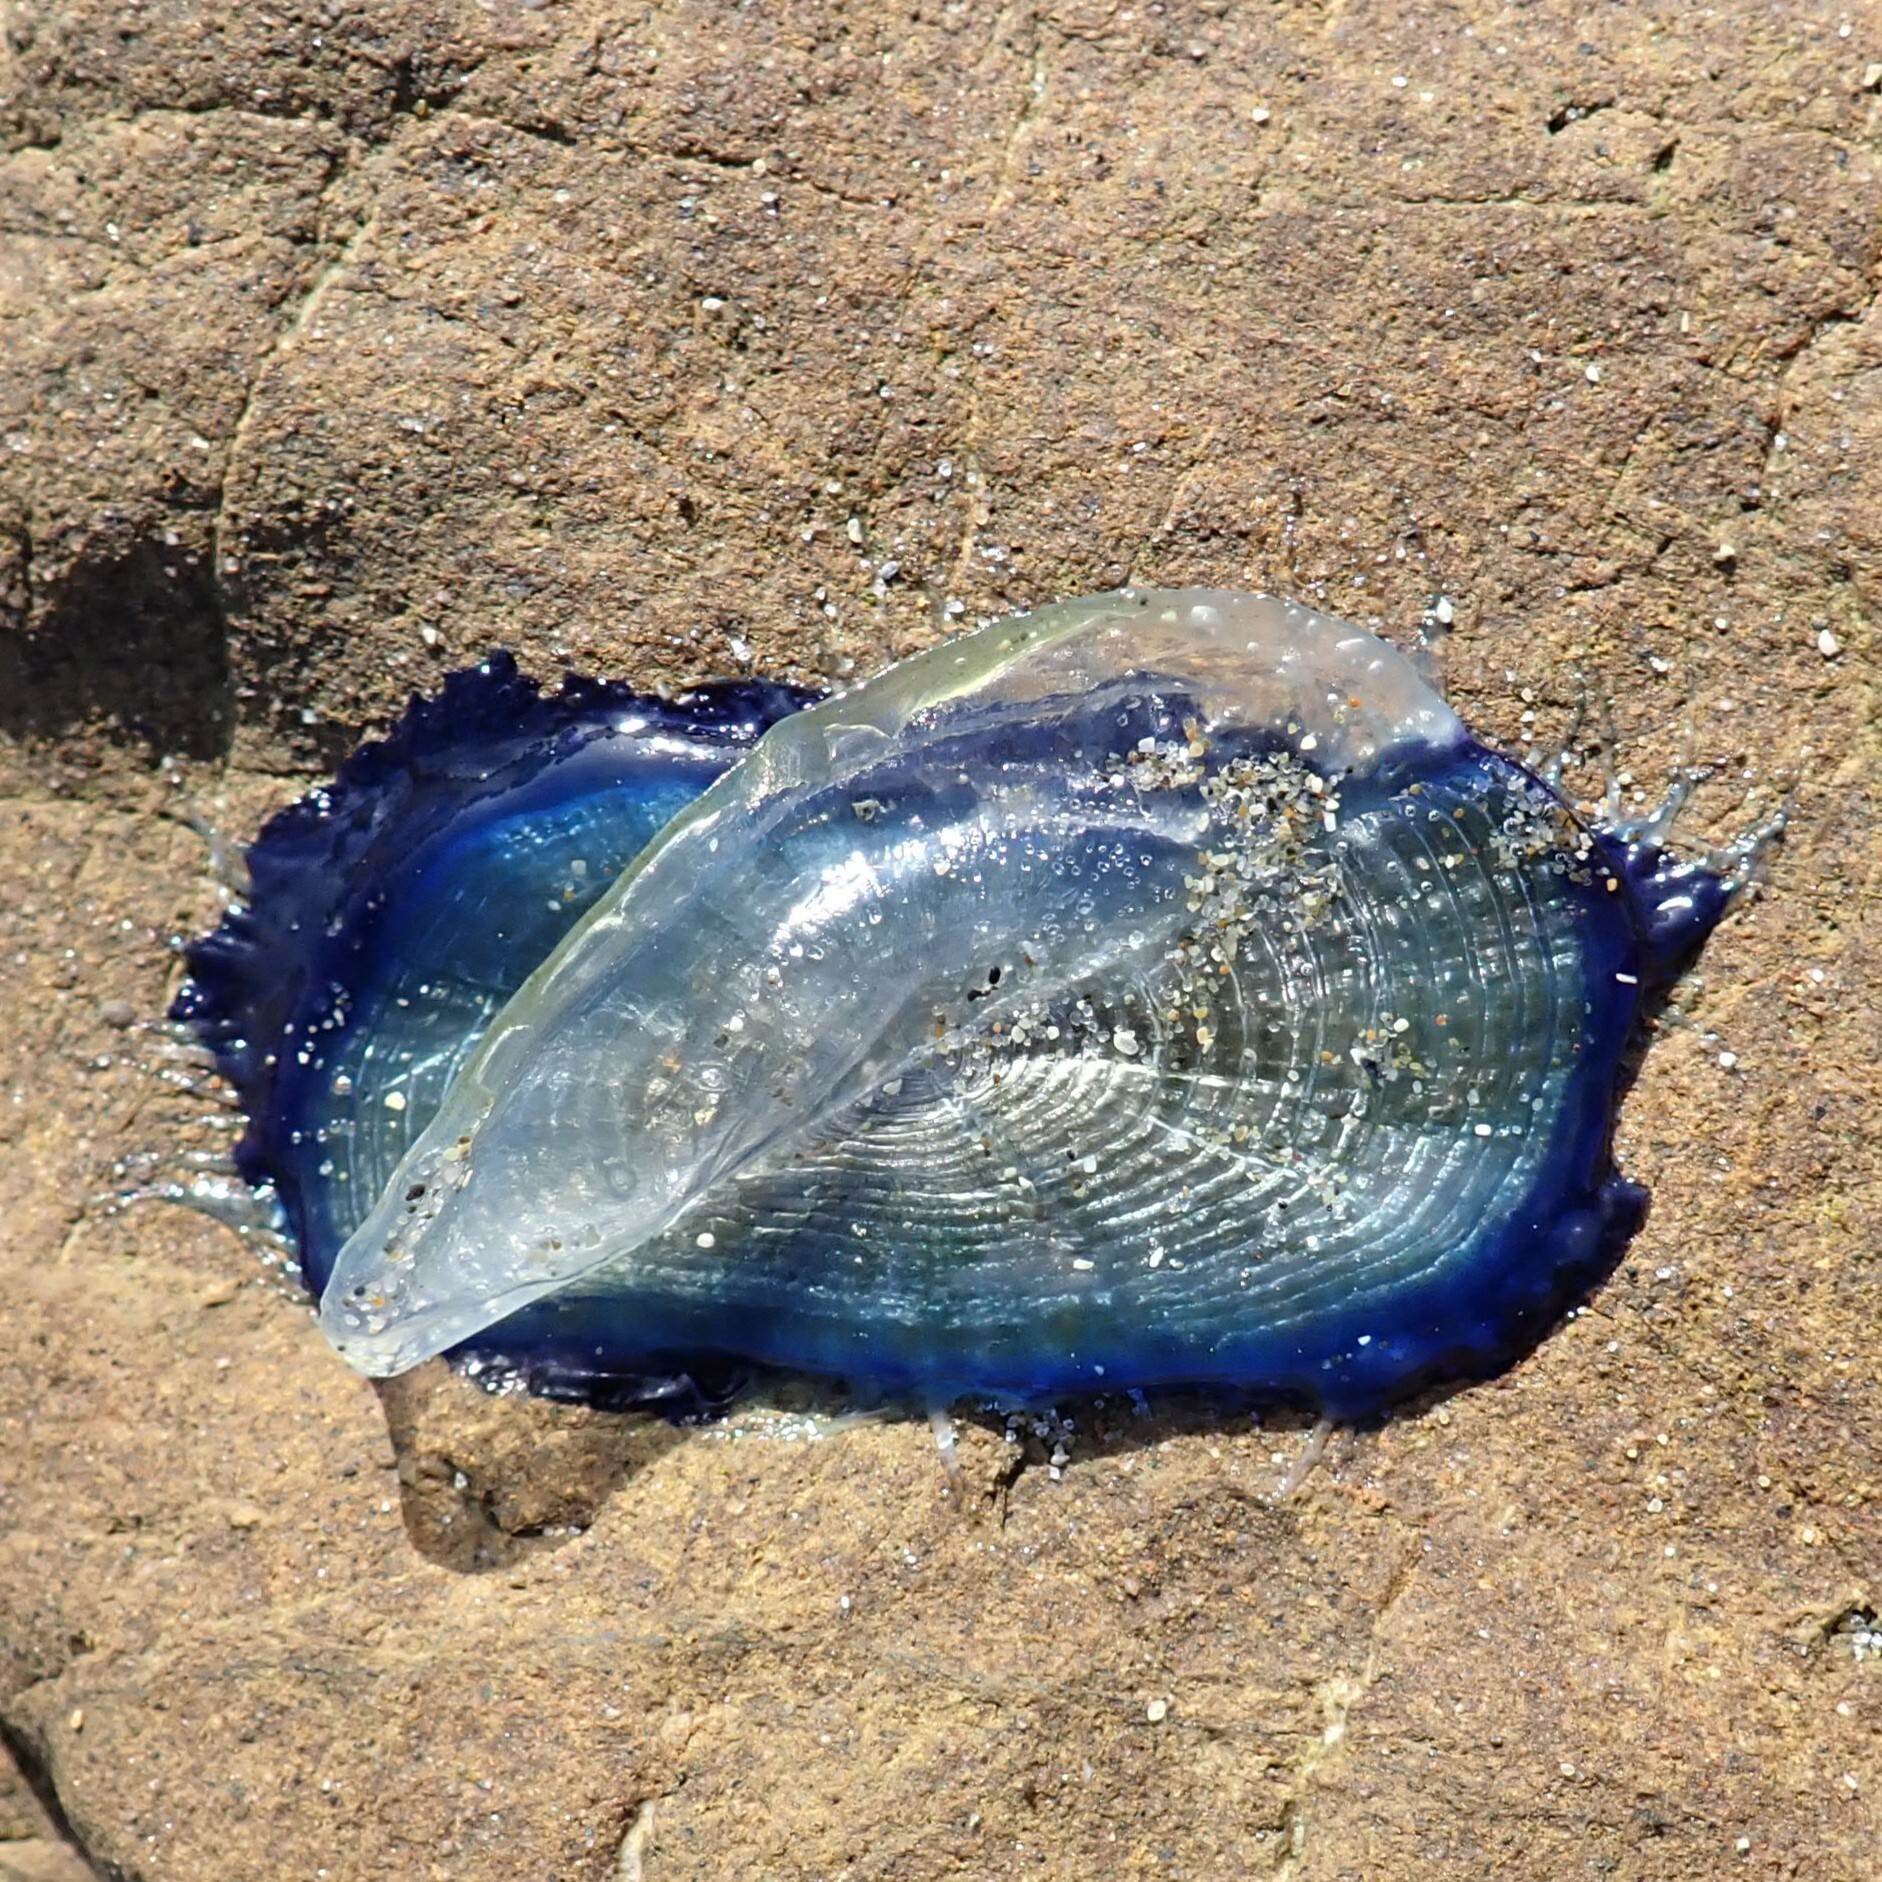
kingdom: Animalia
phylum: Cnidaria
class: Hydrozoa
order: Anthoathecata
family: Porpitidae
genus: Velella
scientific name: Velella velella
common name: By-the-wind-sailor
